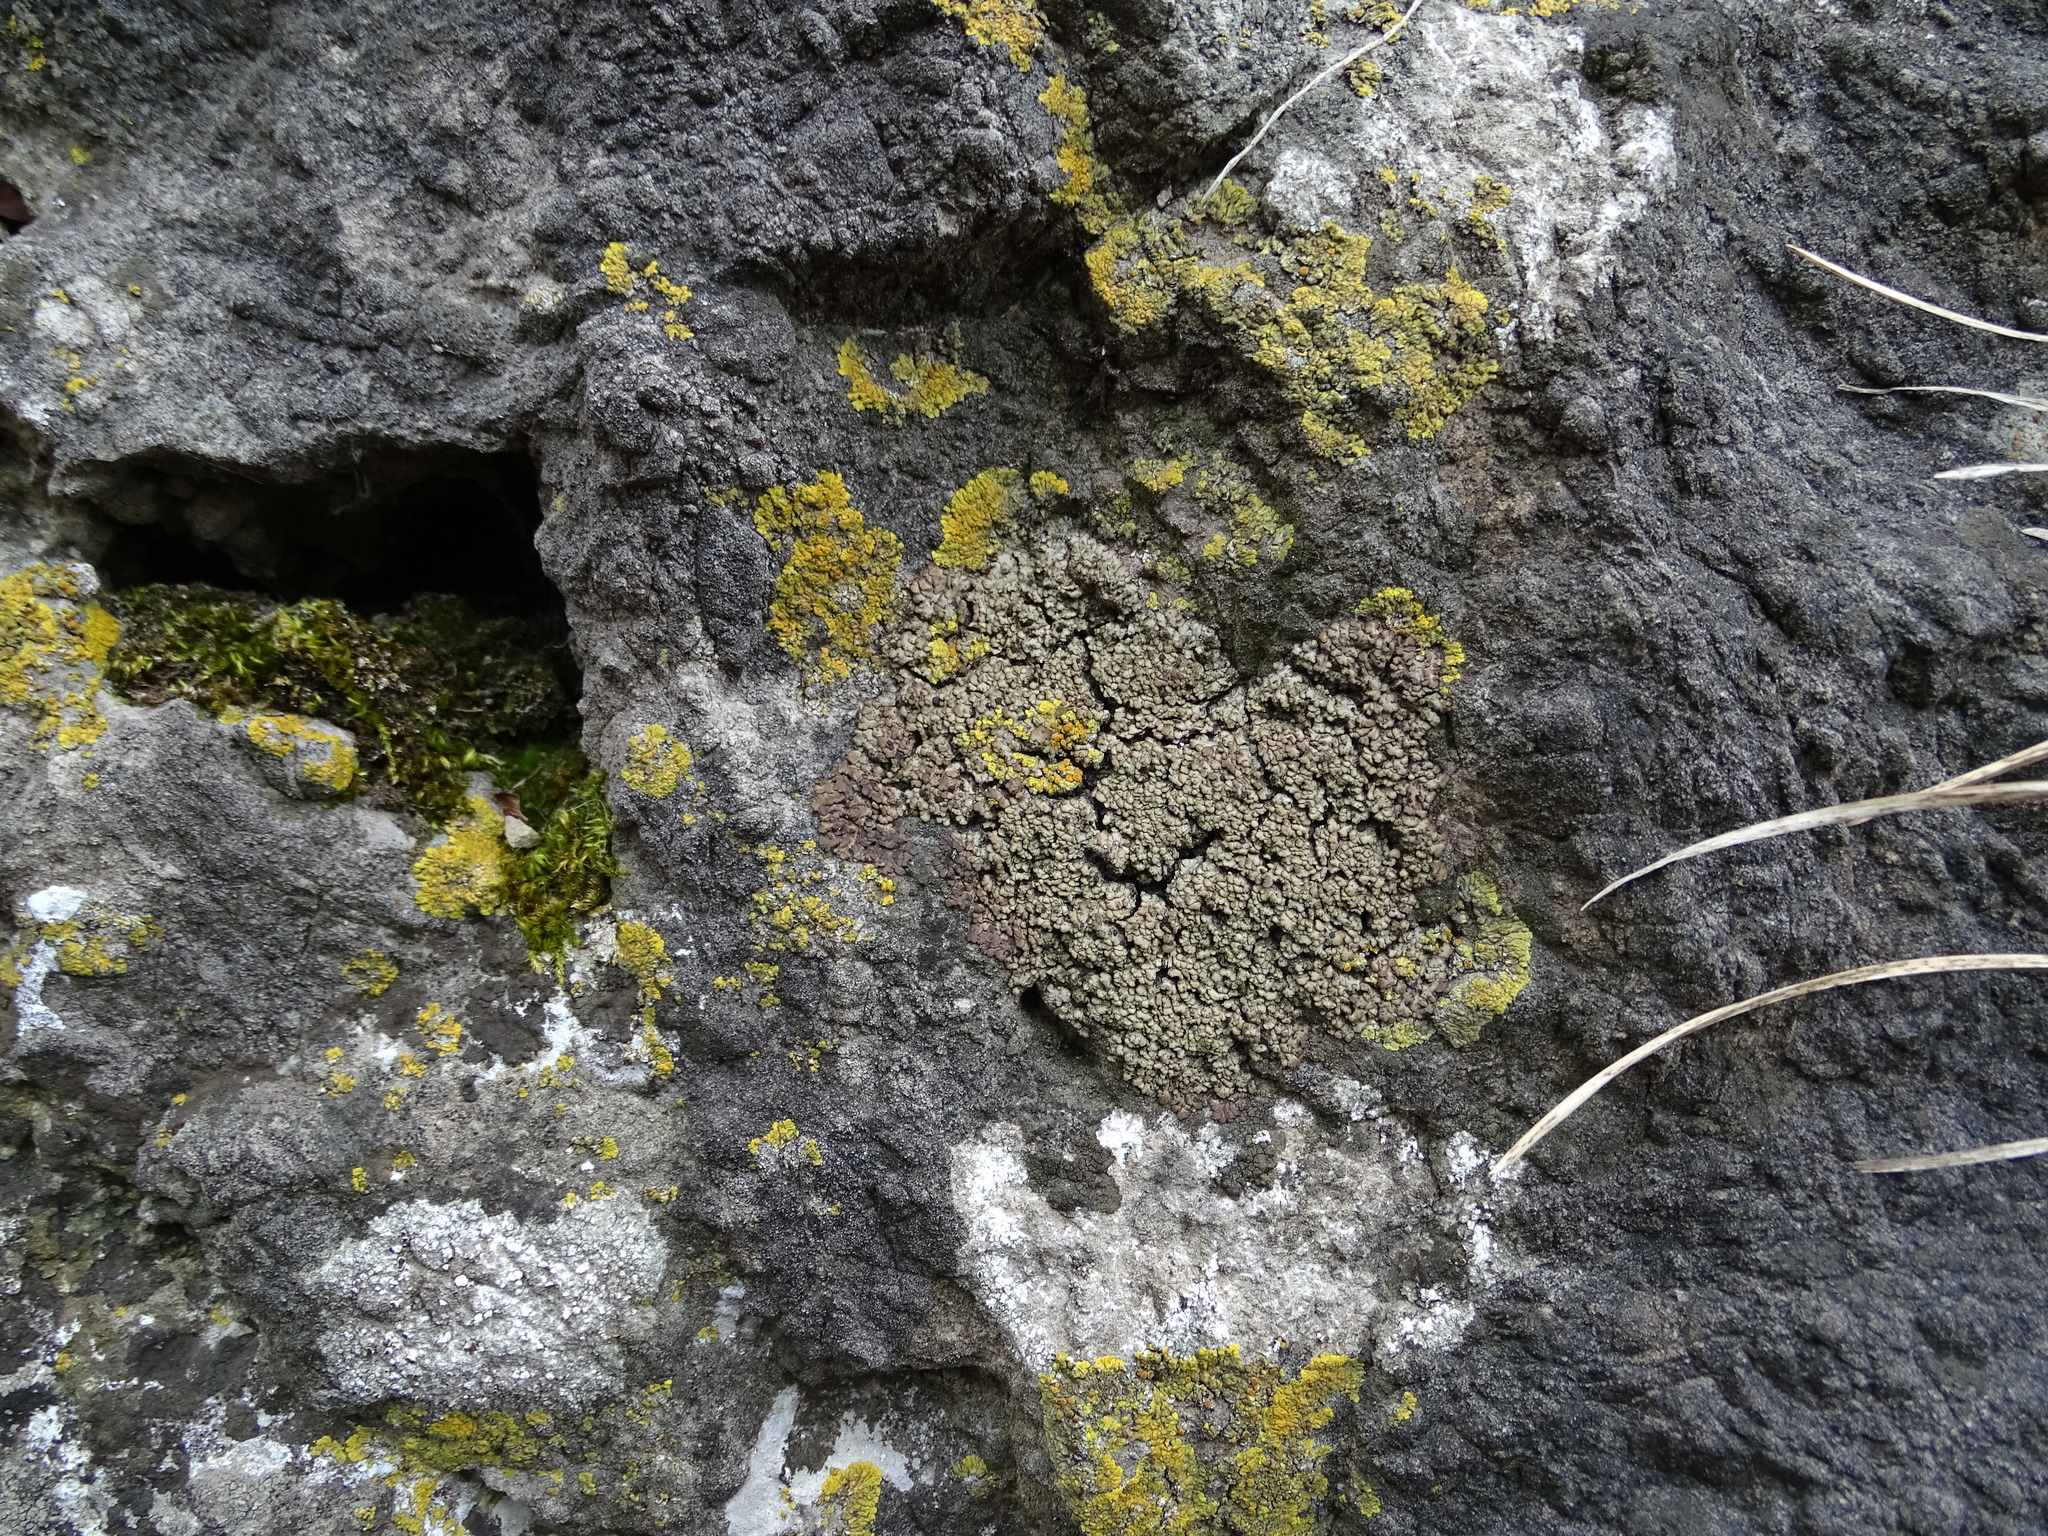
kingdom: Fungi
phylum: Ascomycota
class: Lecanoromycetes
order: Lecideales
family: Lecideaceae
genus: Romjularia
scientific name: Romjularia lurida
